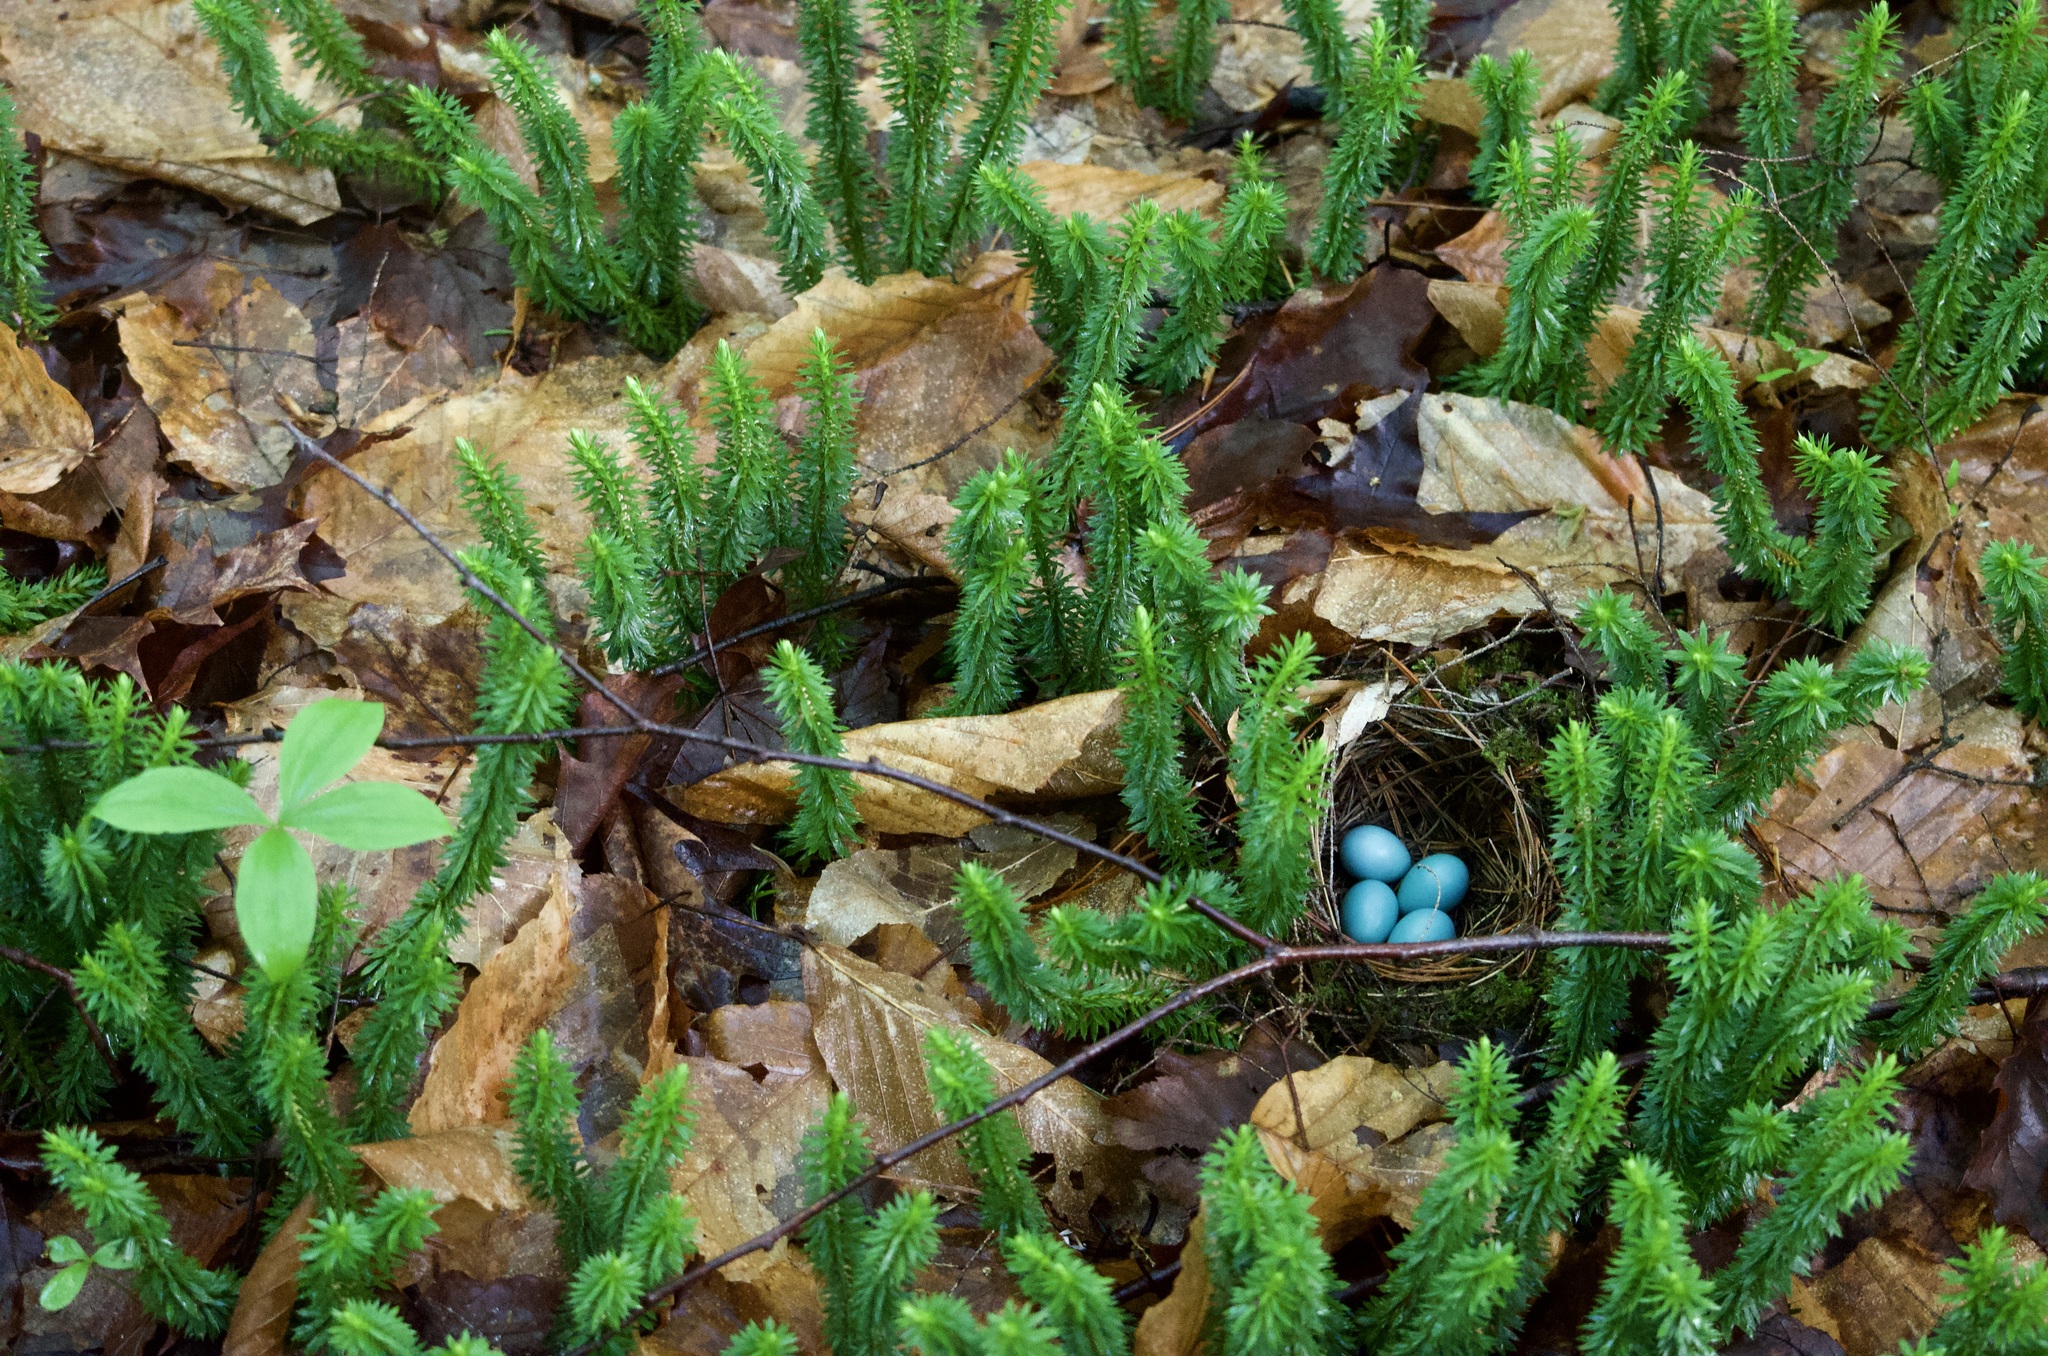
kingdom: Plantae
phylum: Tracheophyta
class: Lycopodiopsida
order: Lycopodiales
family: Lycopodiaceae
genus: Huperzia
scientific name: Huperzia lucidula
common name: Shining clubmoss
